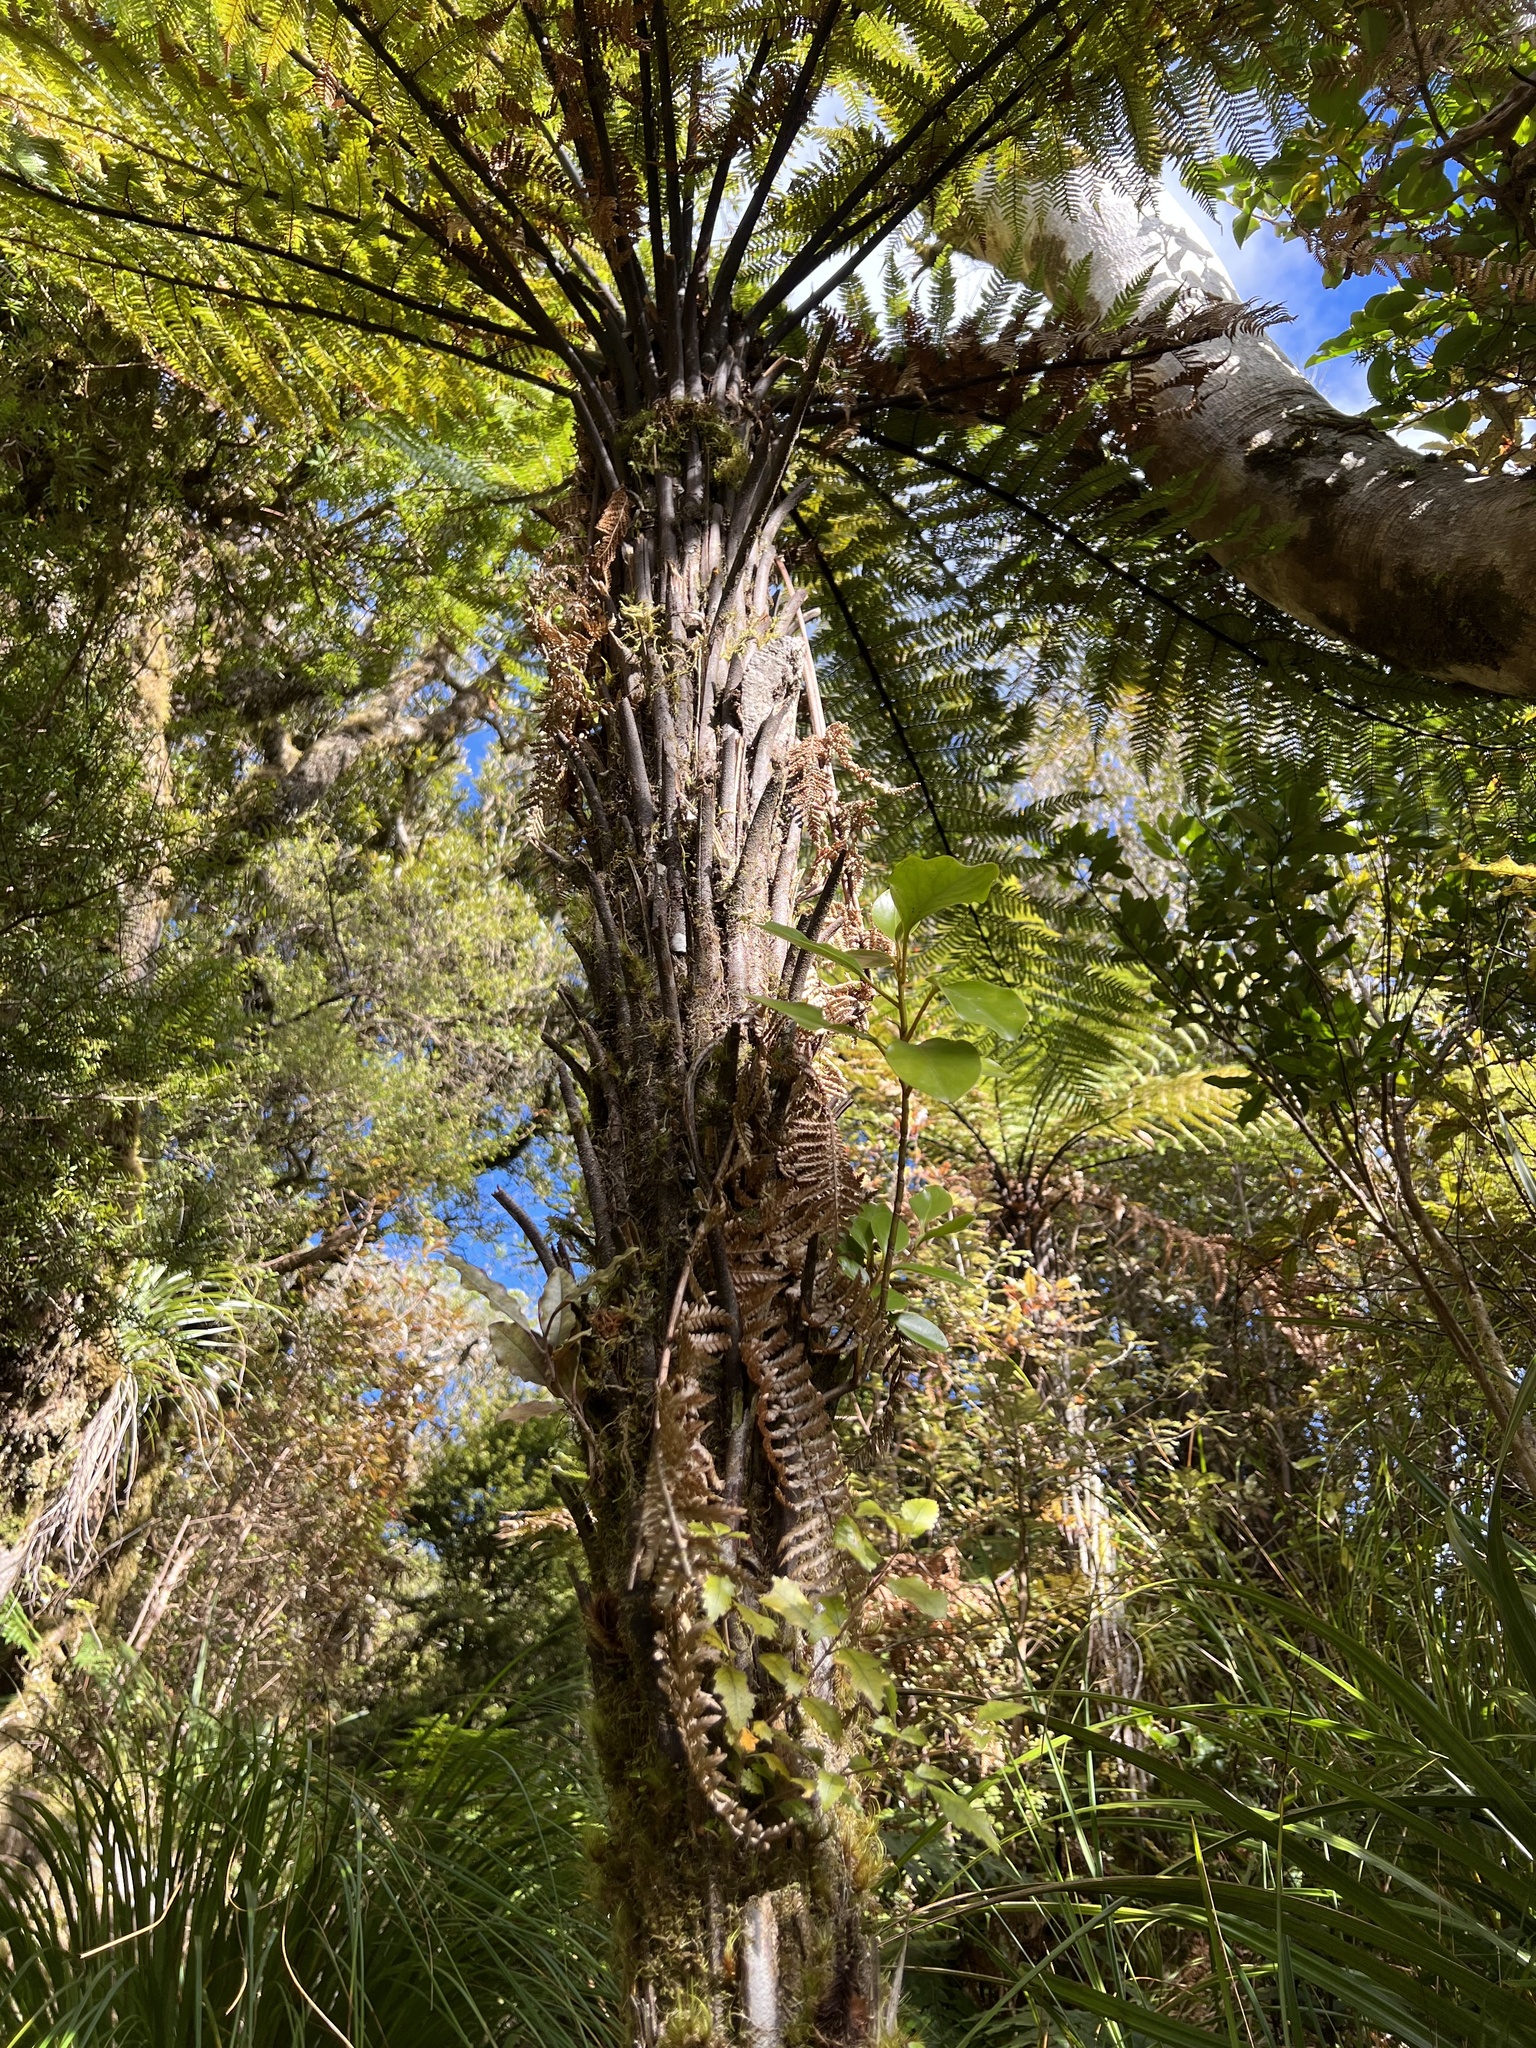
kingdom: Plantae
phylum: Tracheophyta
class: Magnoliopsida
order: Apiales
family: Griseliniaceae
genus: Griselinia
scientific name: Griselinia lucida
